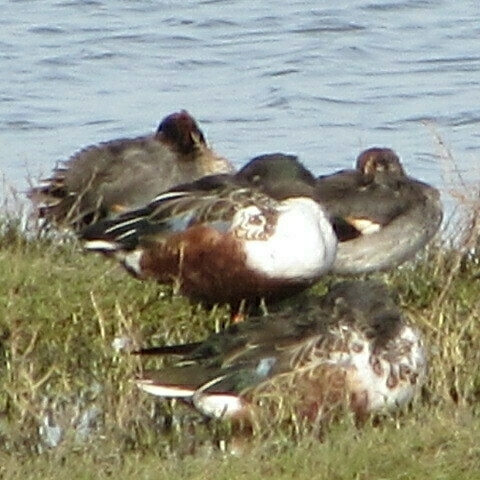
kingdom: Animalia
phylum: Chordata
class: Aves
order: Anseriformes
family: Anatidae
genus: Spatula
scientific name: Spatula clypeata
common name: Northern shoveler
